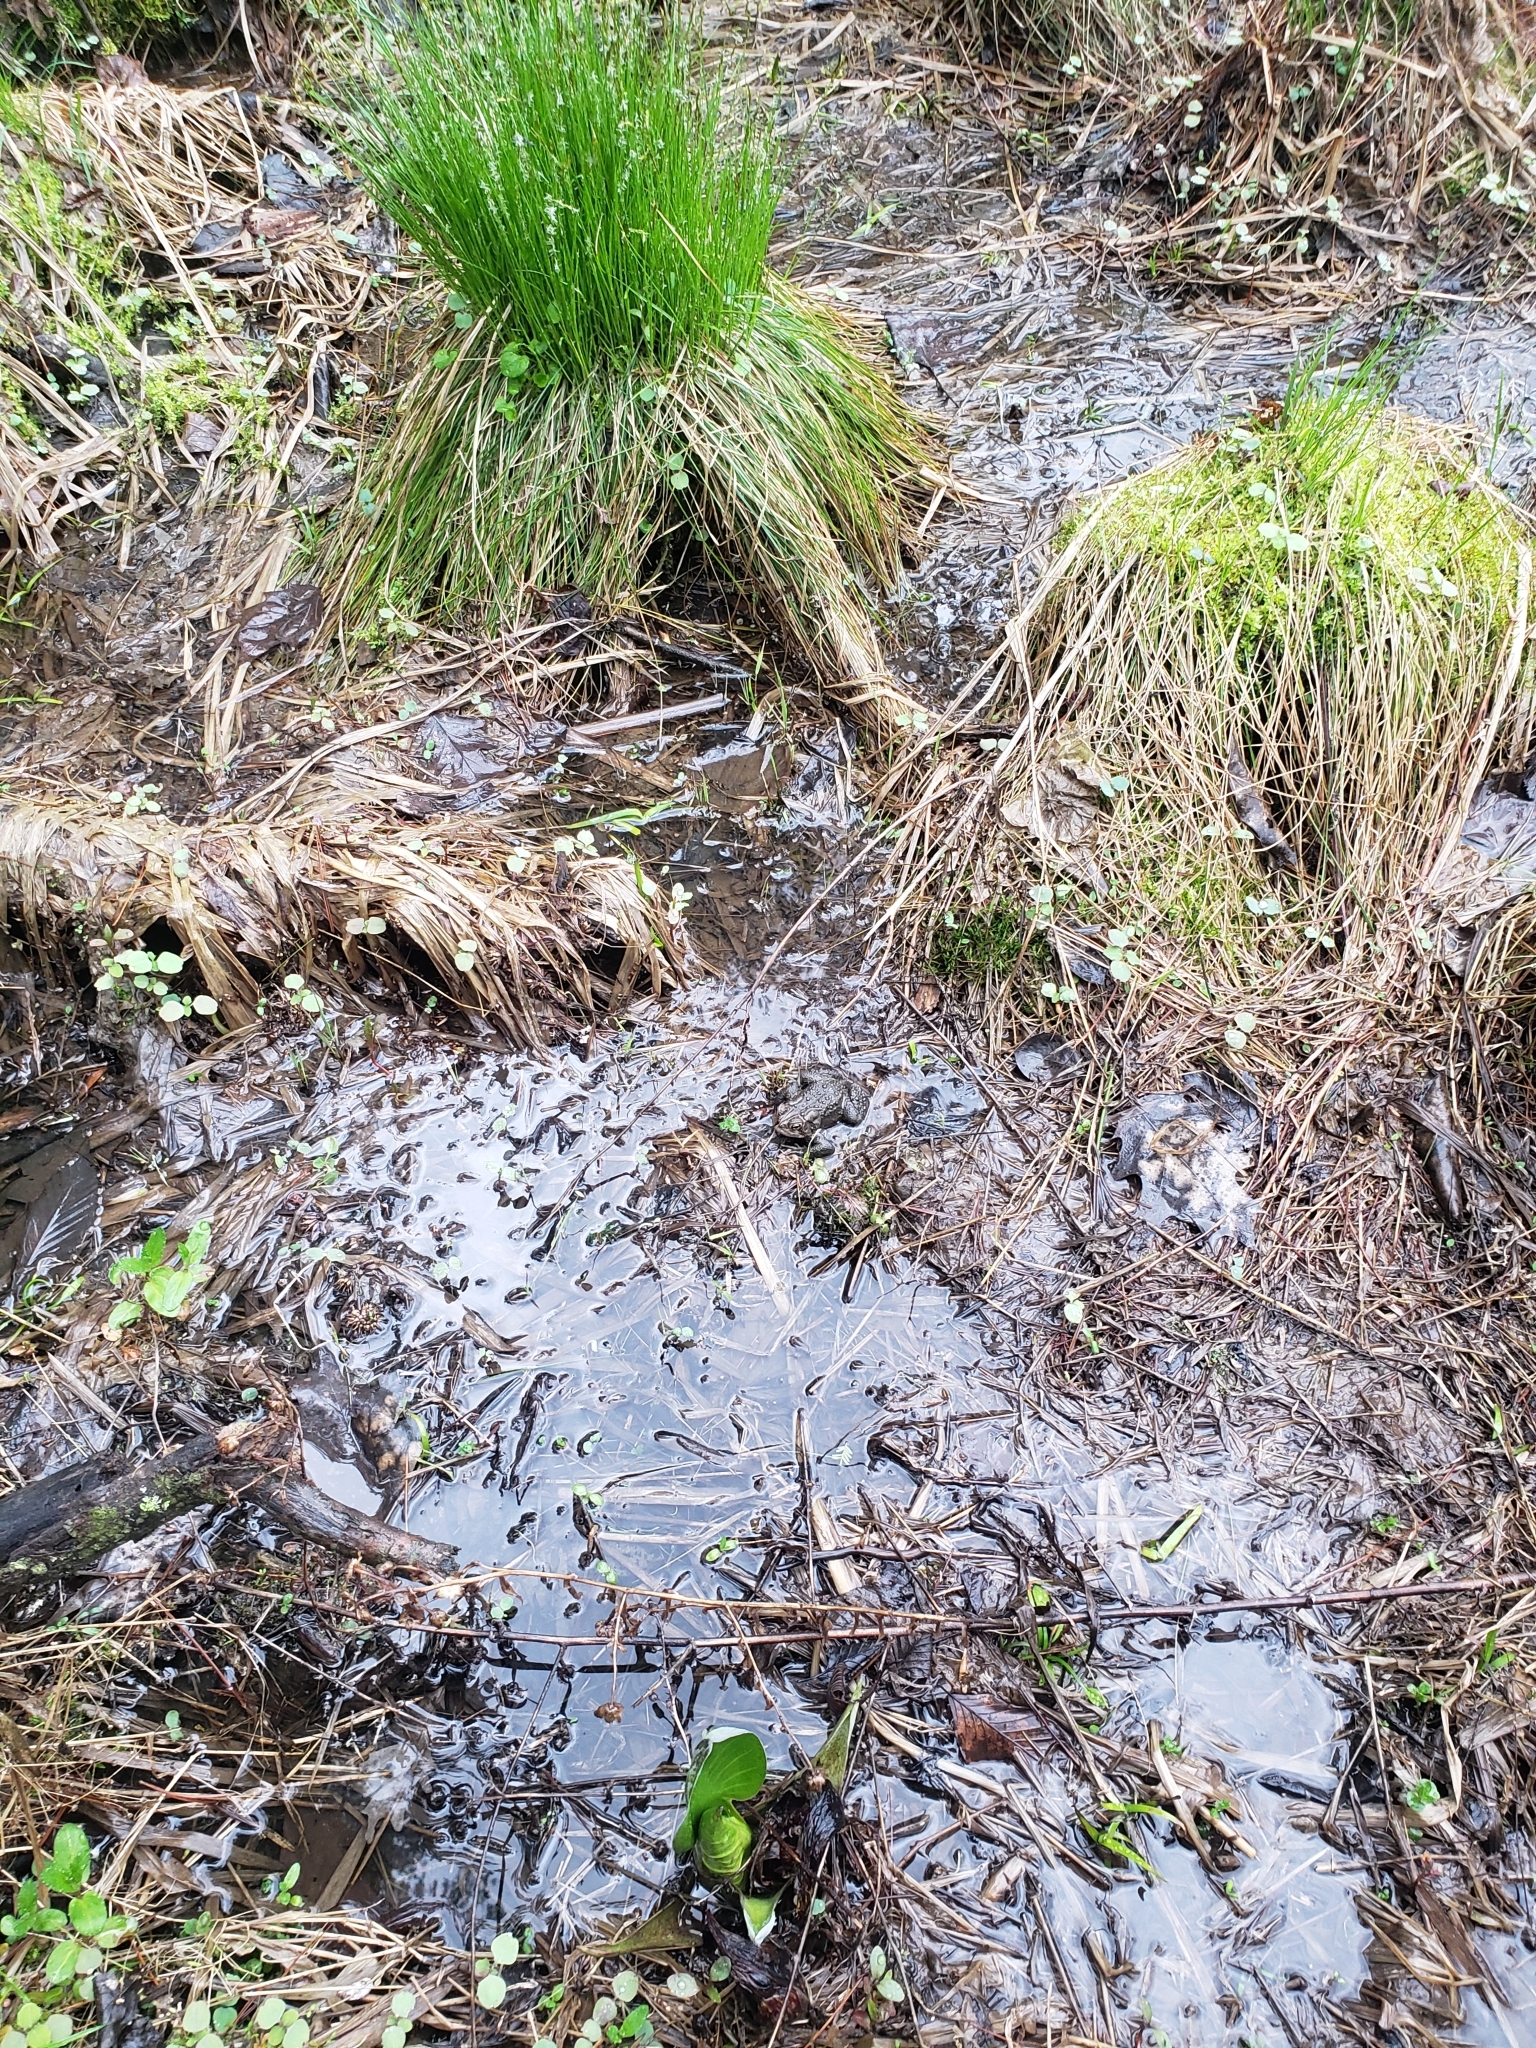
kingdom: Animalia
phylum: Chordata
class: Amphibia
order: Anura
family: Bufonidae
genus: Anaxyrus
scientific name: Anaxyrus americanus
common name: American toad
